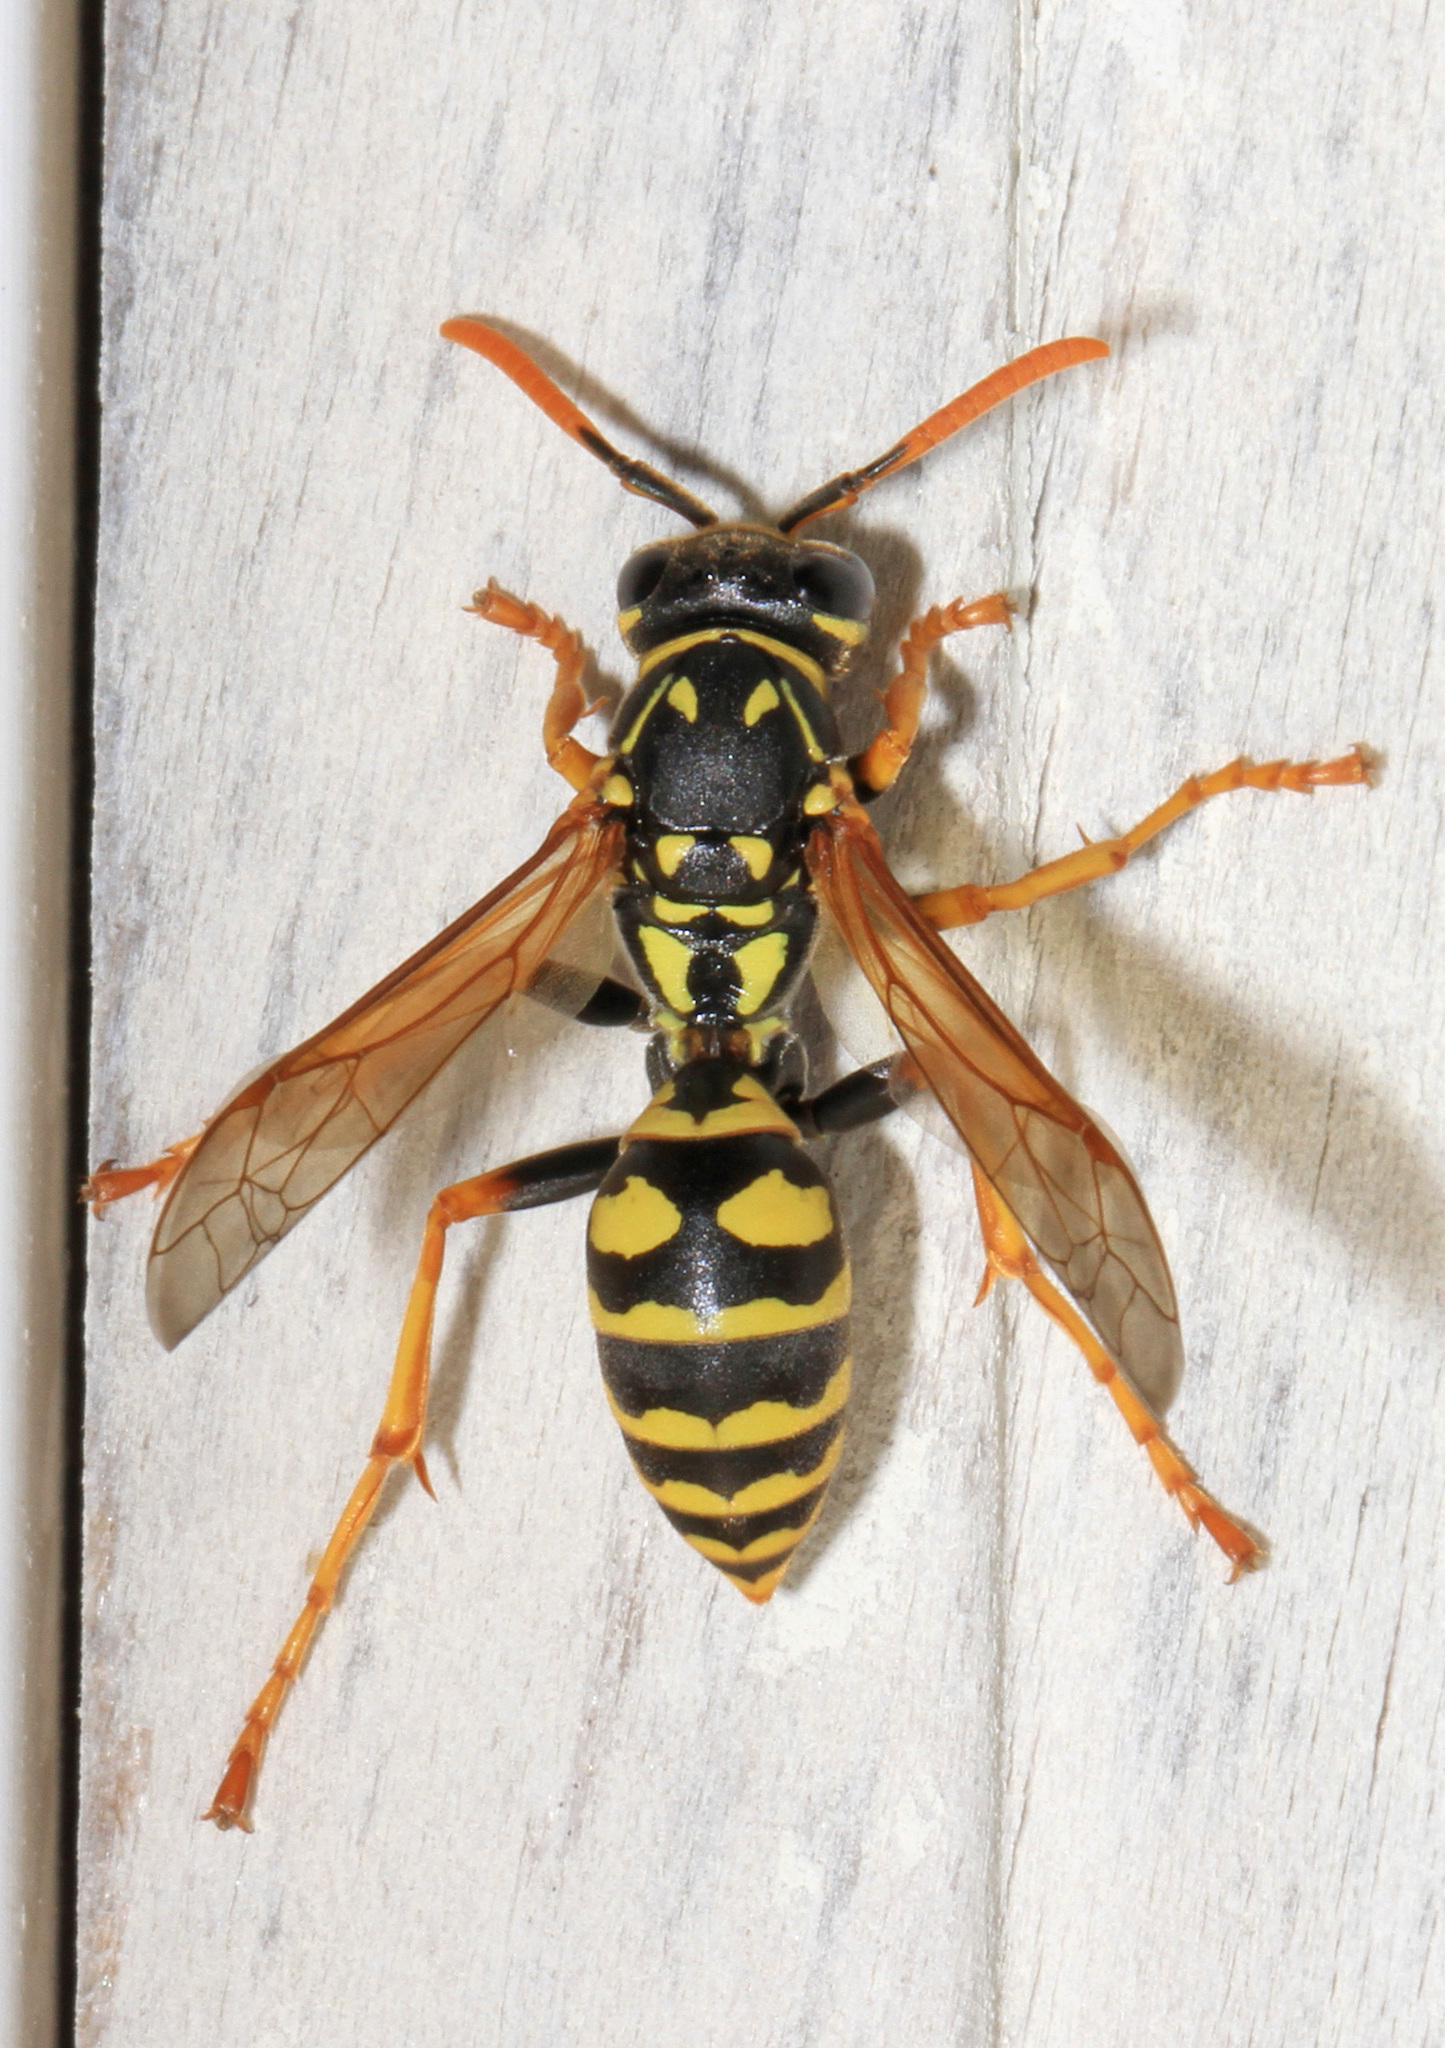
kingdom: Animalia
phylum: Arthropoda
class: Insecta
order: Hymenoptera
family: Eumenidae
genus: Polistes
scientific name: Polistes dominula
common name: Paper wasp
